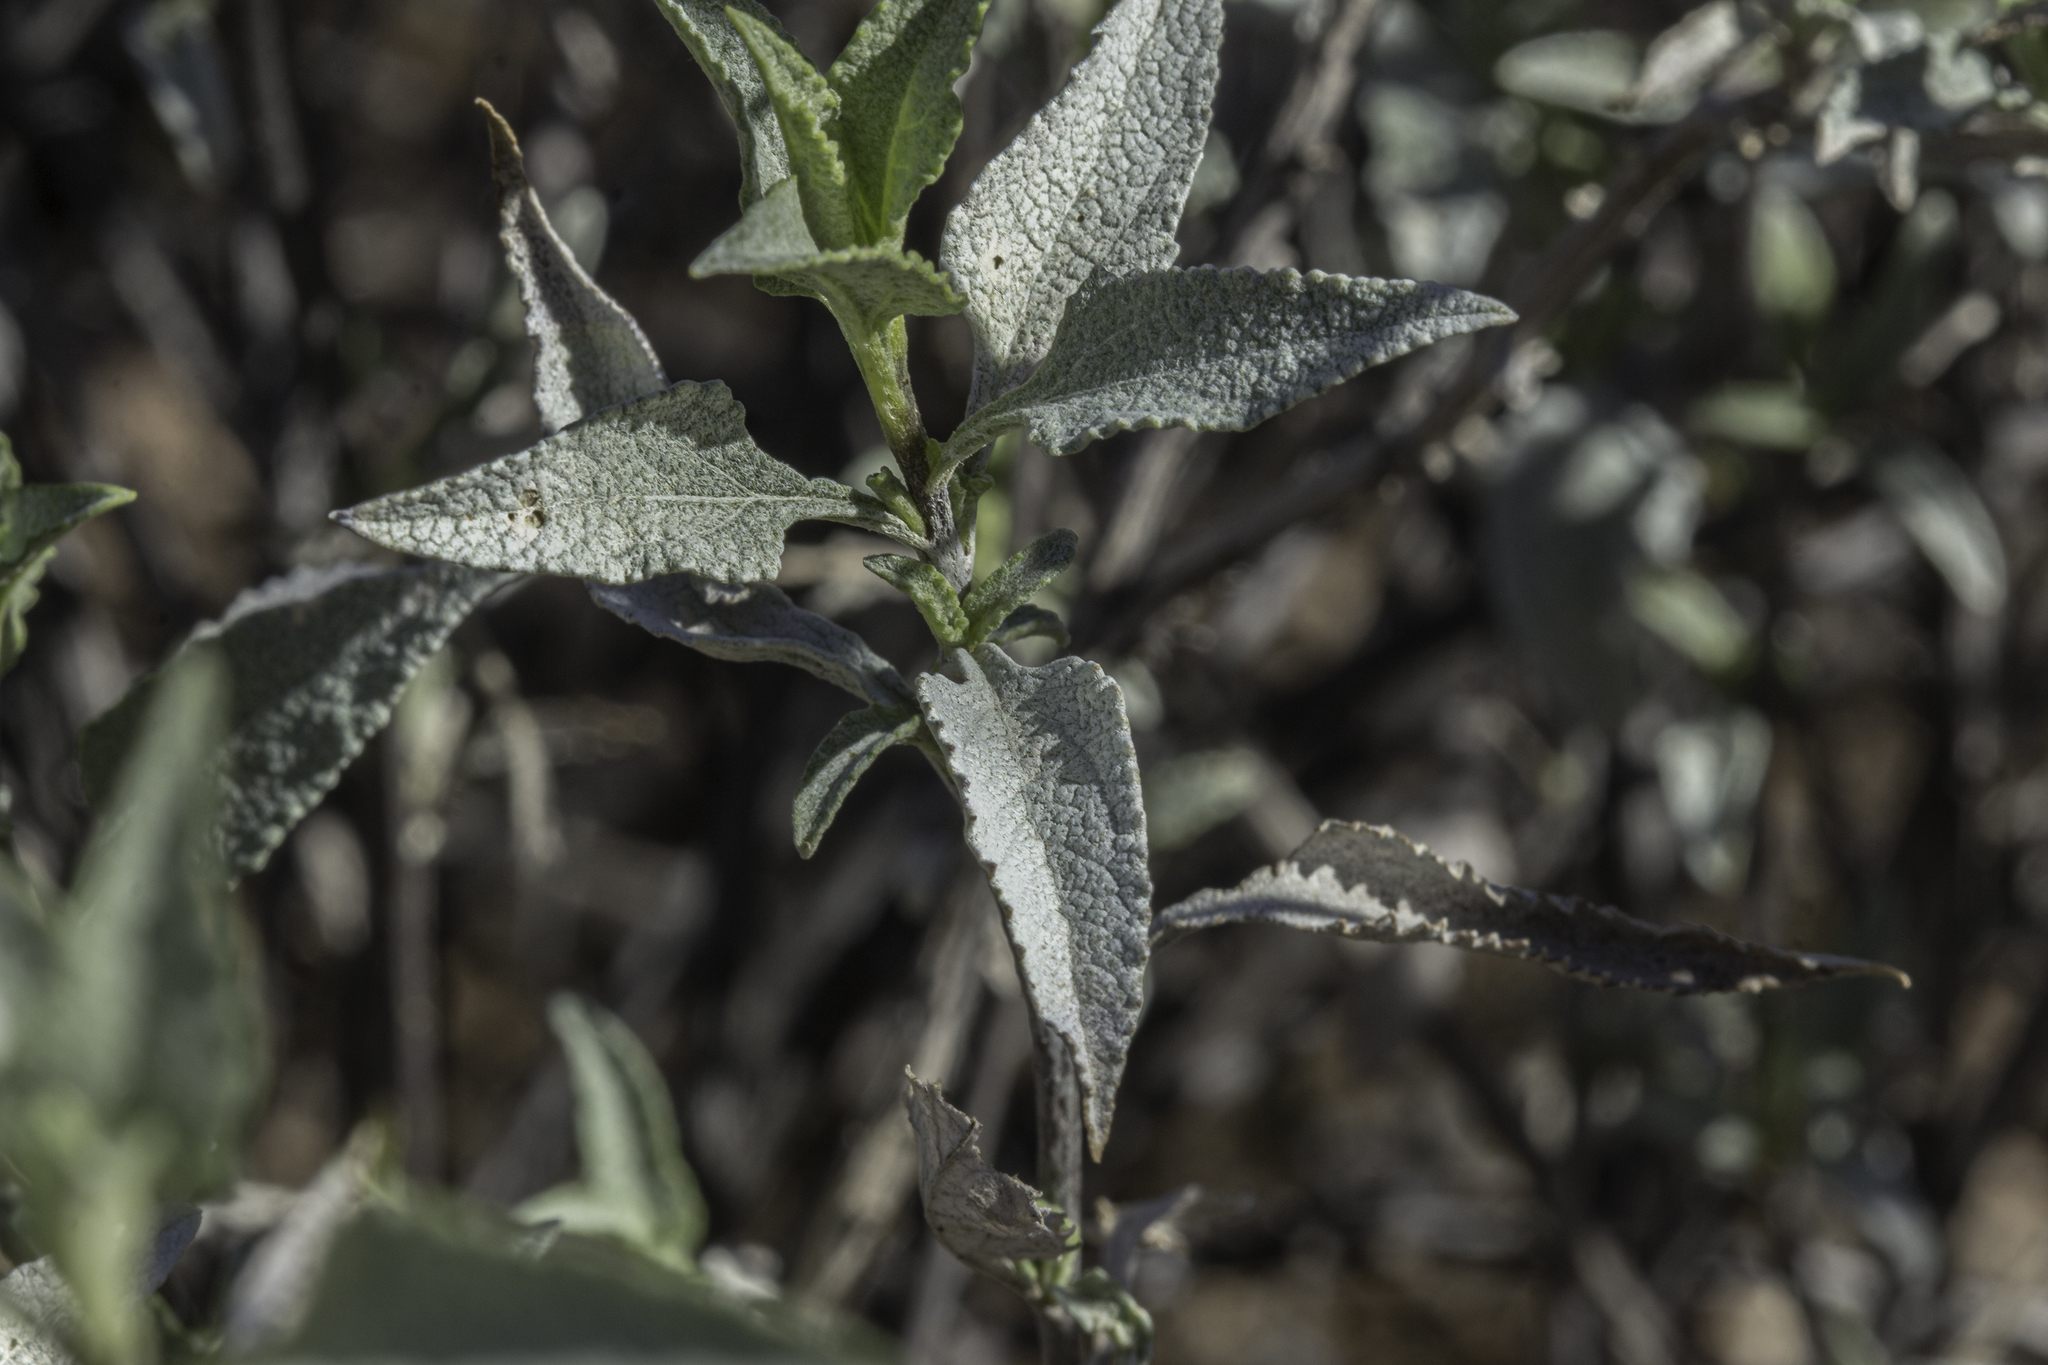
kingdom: Plantae
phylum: Tracheophyta
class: Magnoliopsida
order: Asterales
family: Asteraceae
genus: Ambrosia
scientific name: Ambrosia deltoidea
